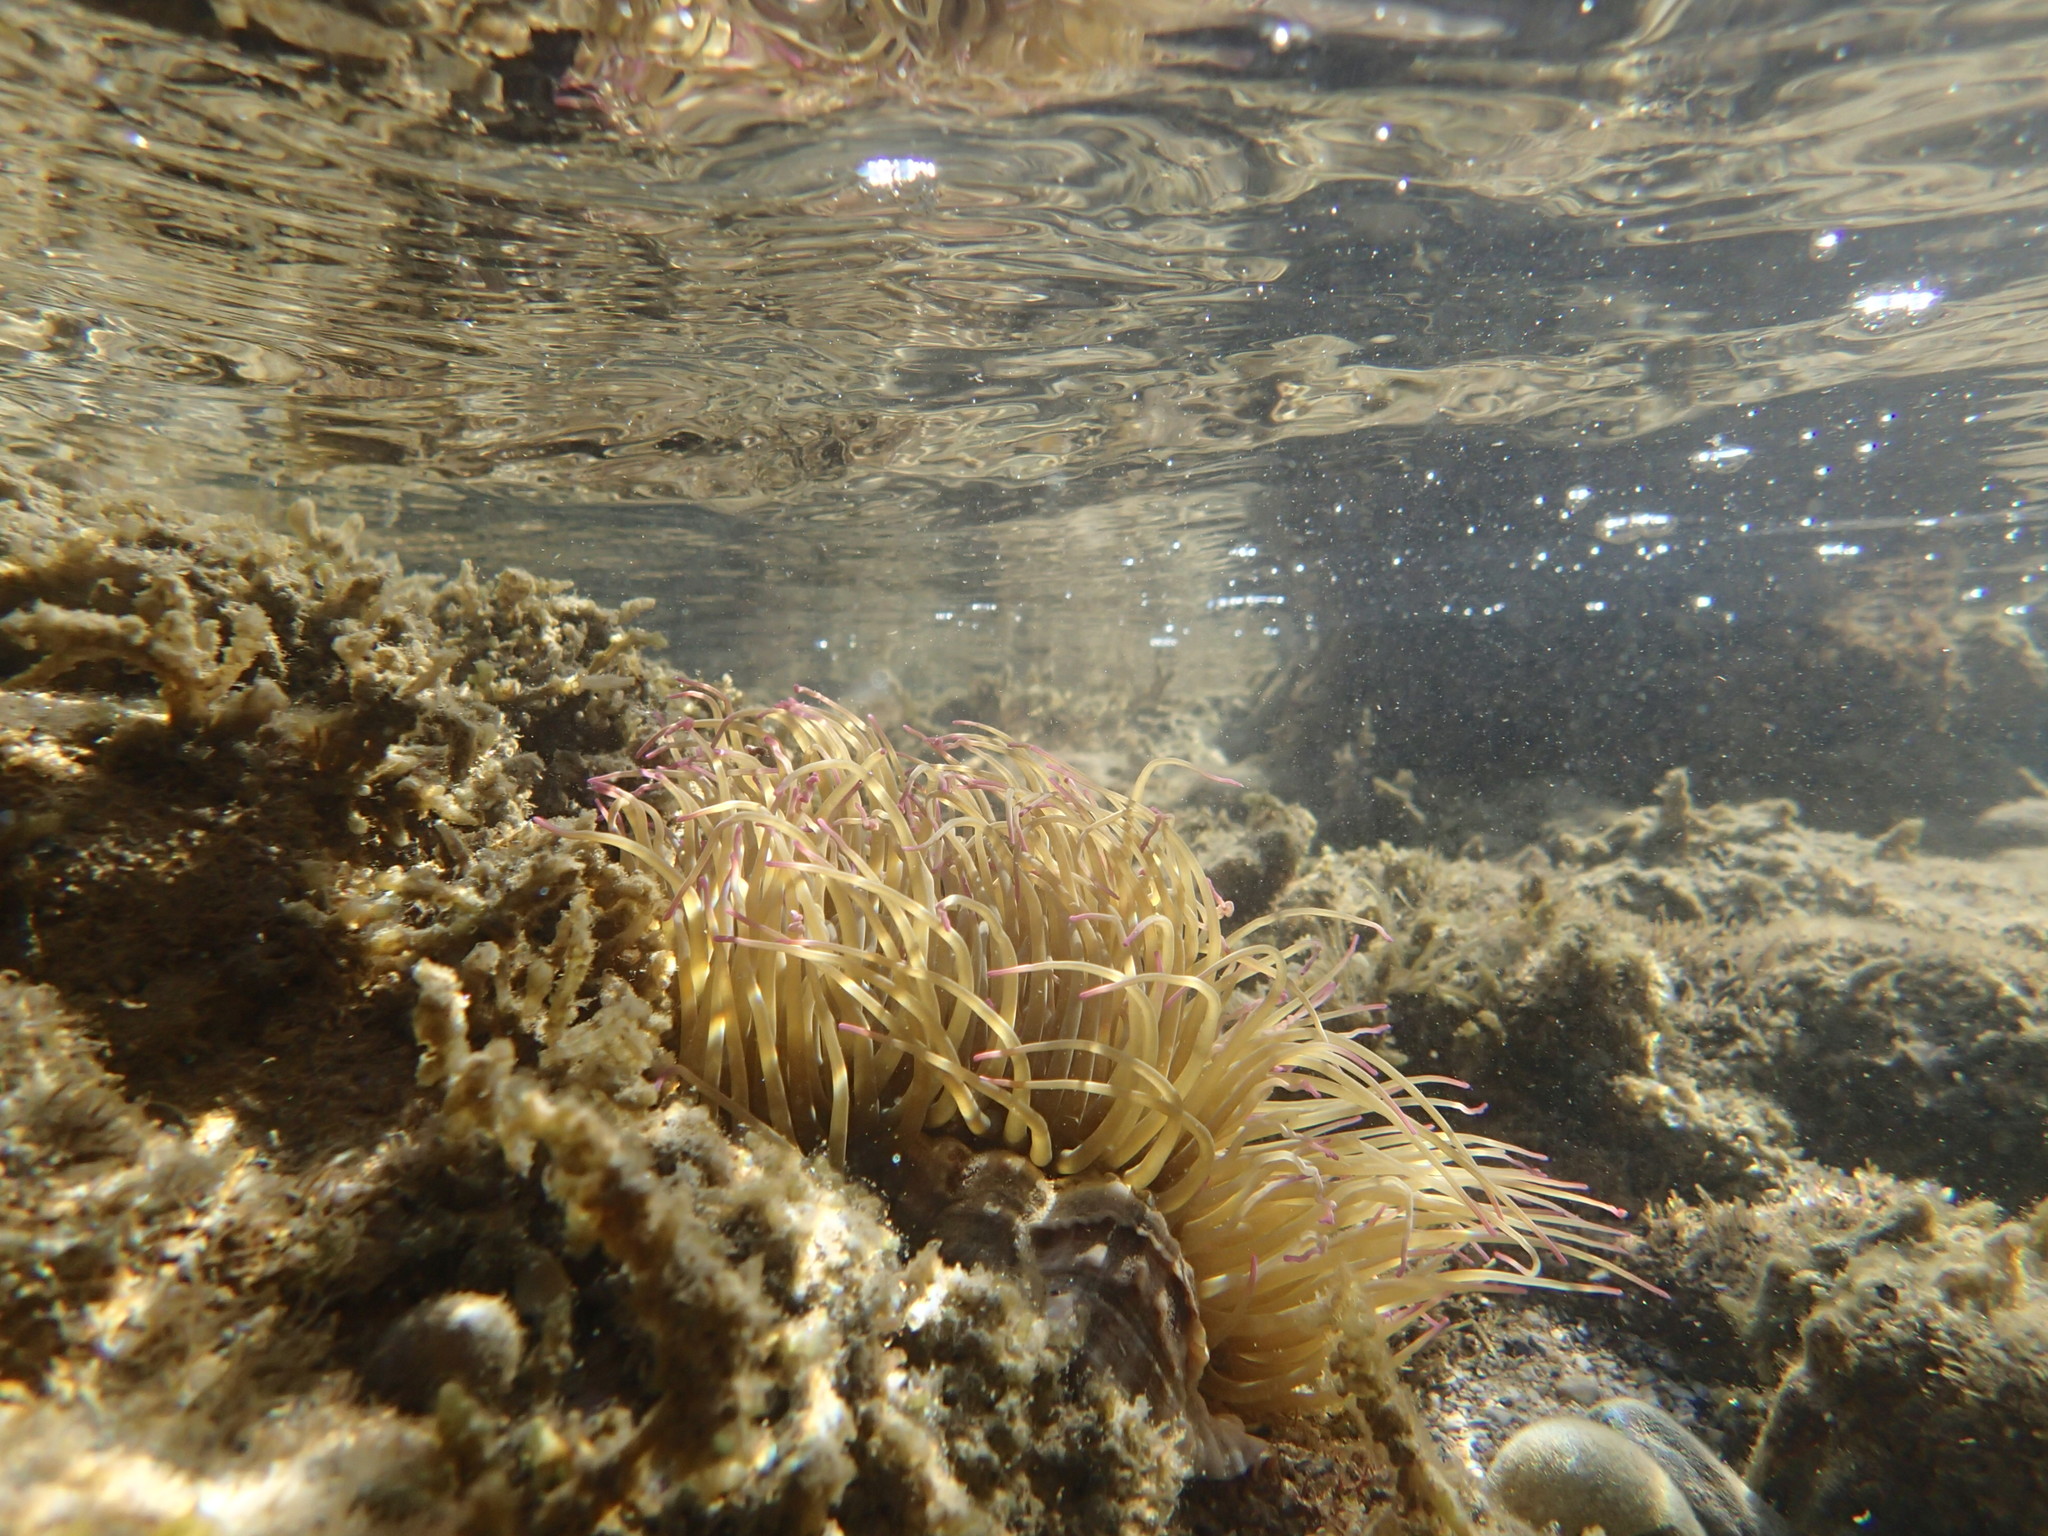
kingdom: Animalia
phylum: Cnidaria
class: Anthozoa
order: Actiniaria
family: Actiniidae
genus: Anemonia
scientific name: Anemonia viridis
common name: Snakelocks anemone
